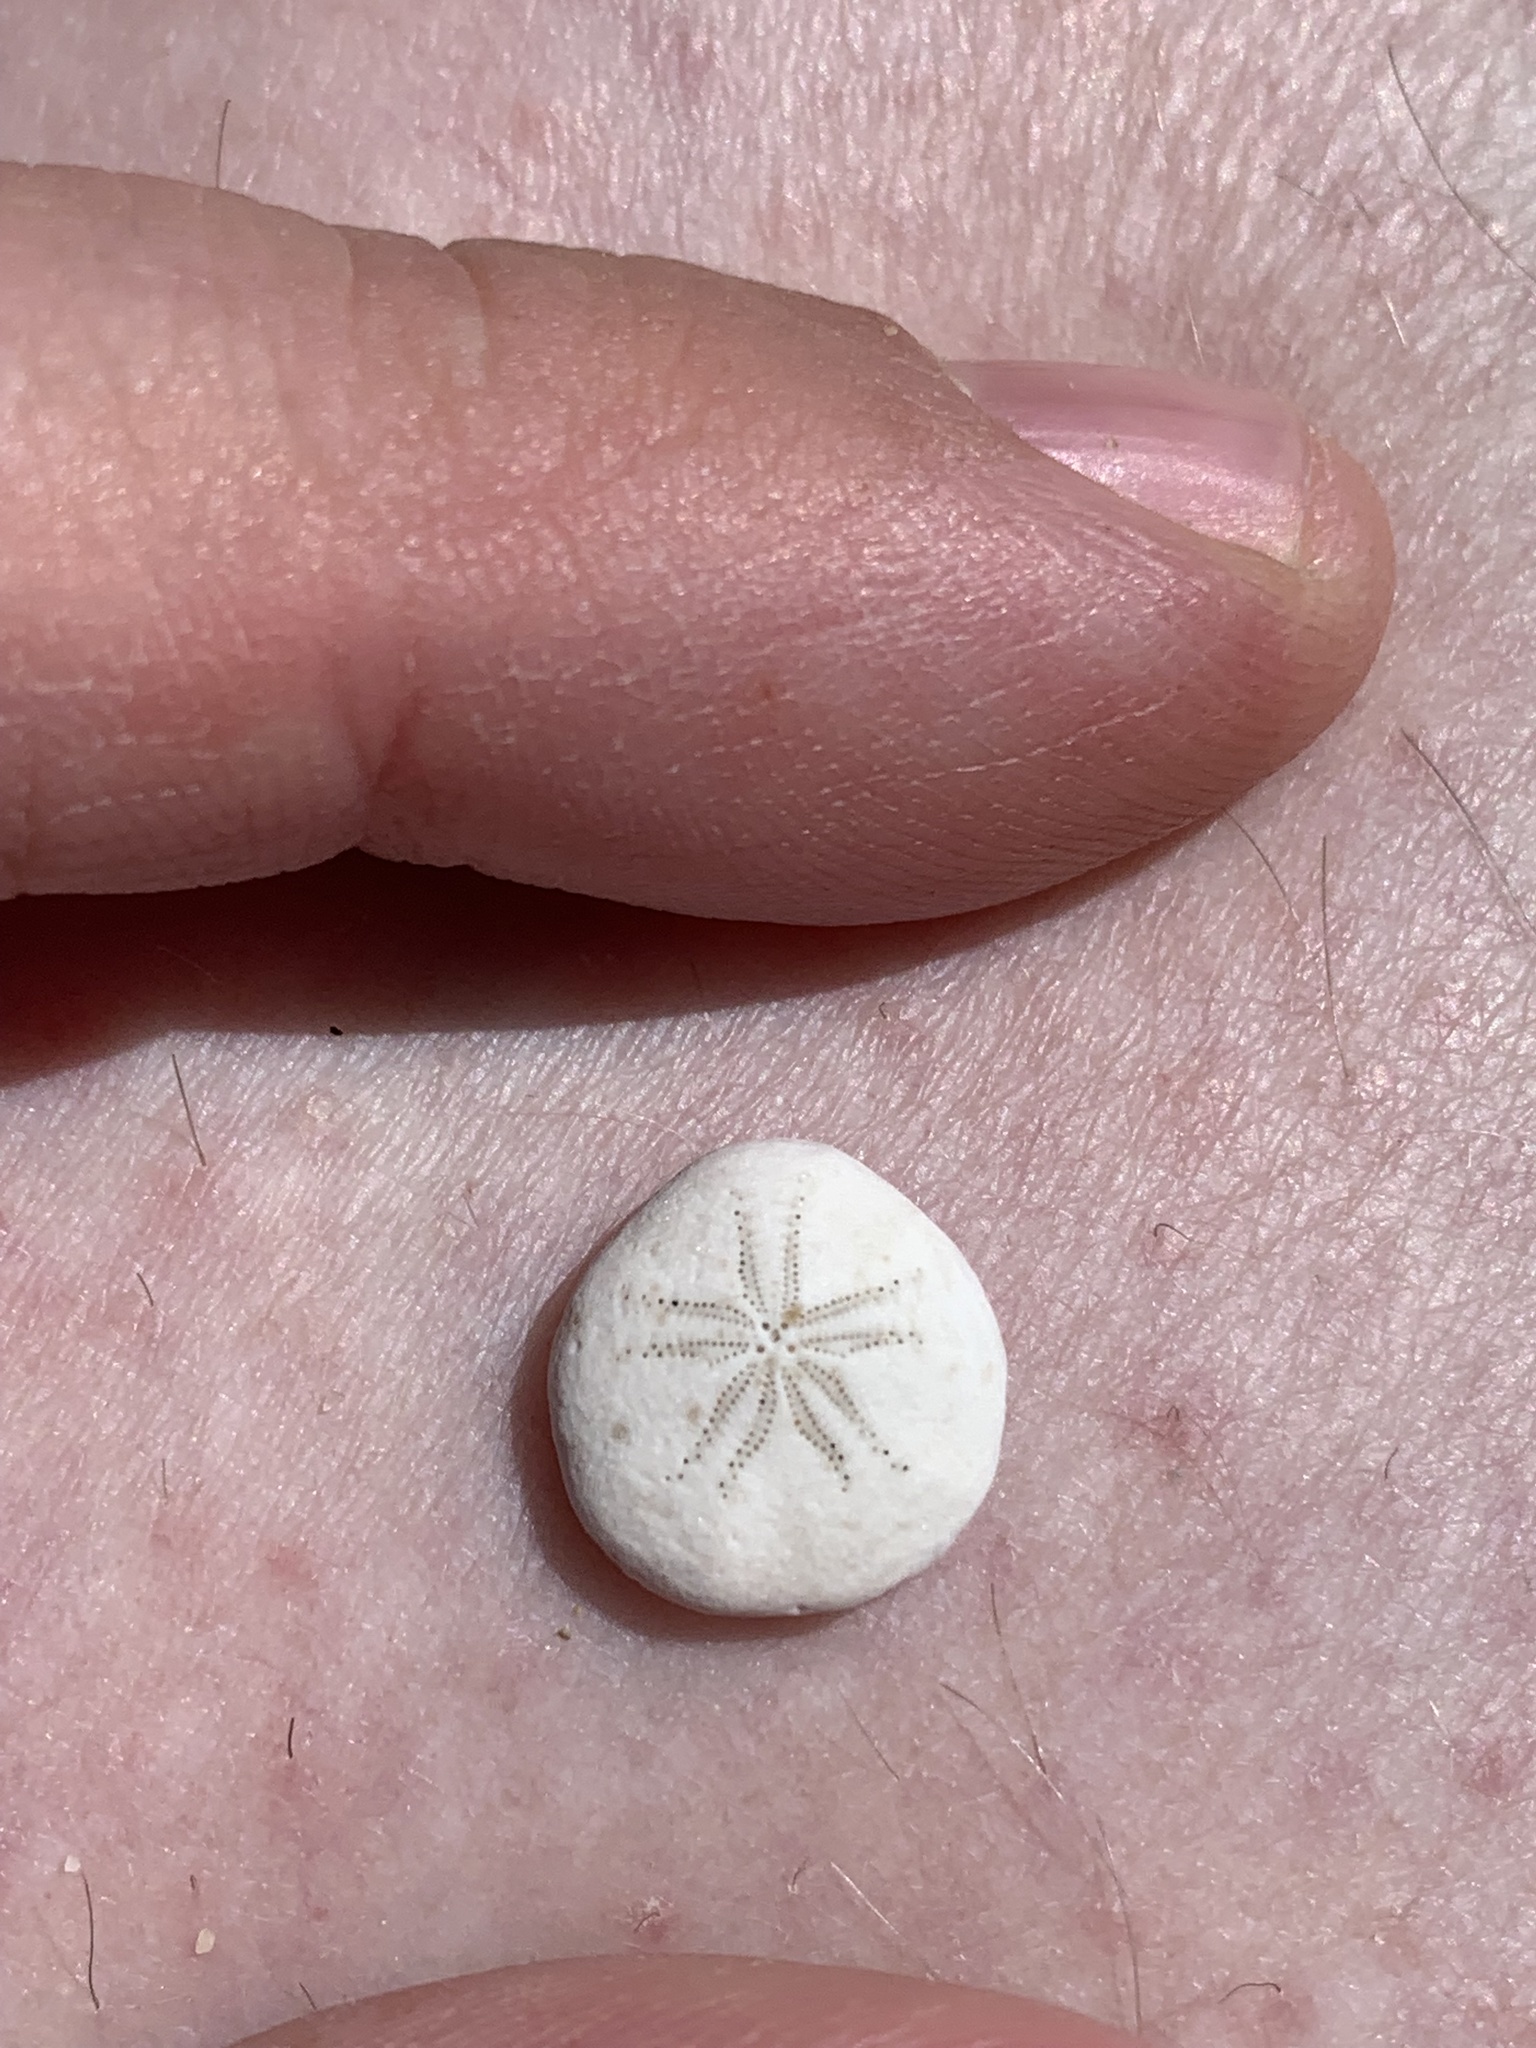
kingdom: Animalia
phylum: Echinodermata
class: Echinoidea
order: Echinolampadacea
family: Fibulariidae
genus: Echinocyamus
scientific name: Echinocyamus pusillus
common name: Broad beau of sea
